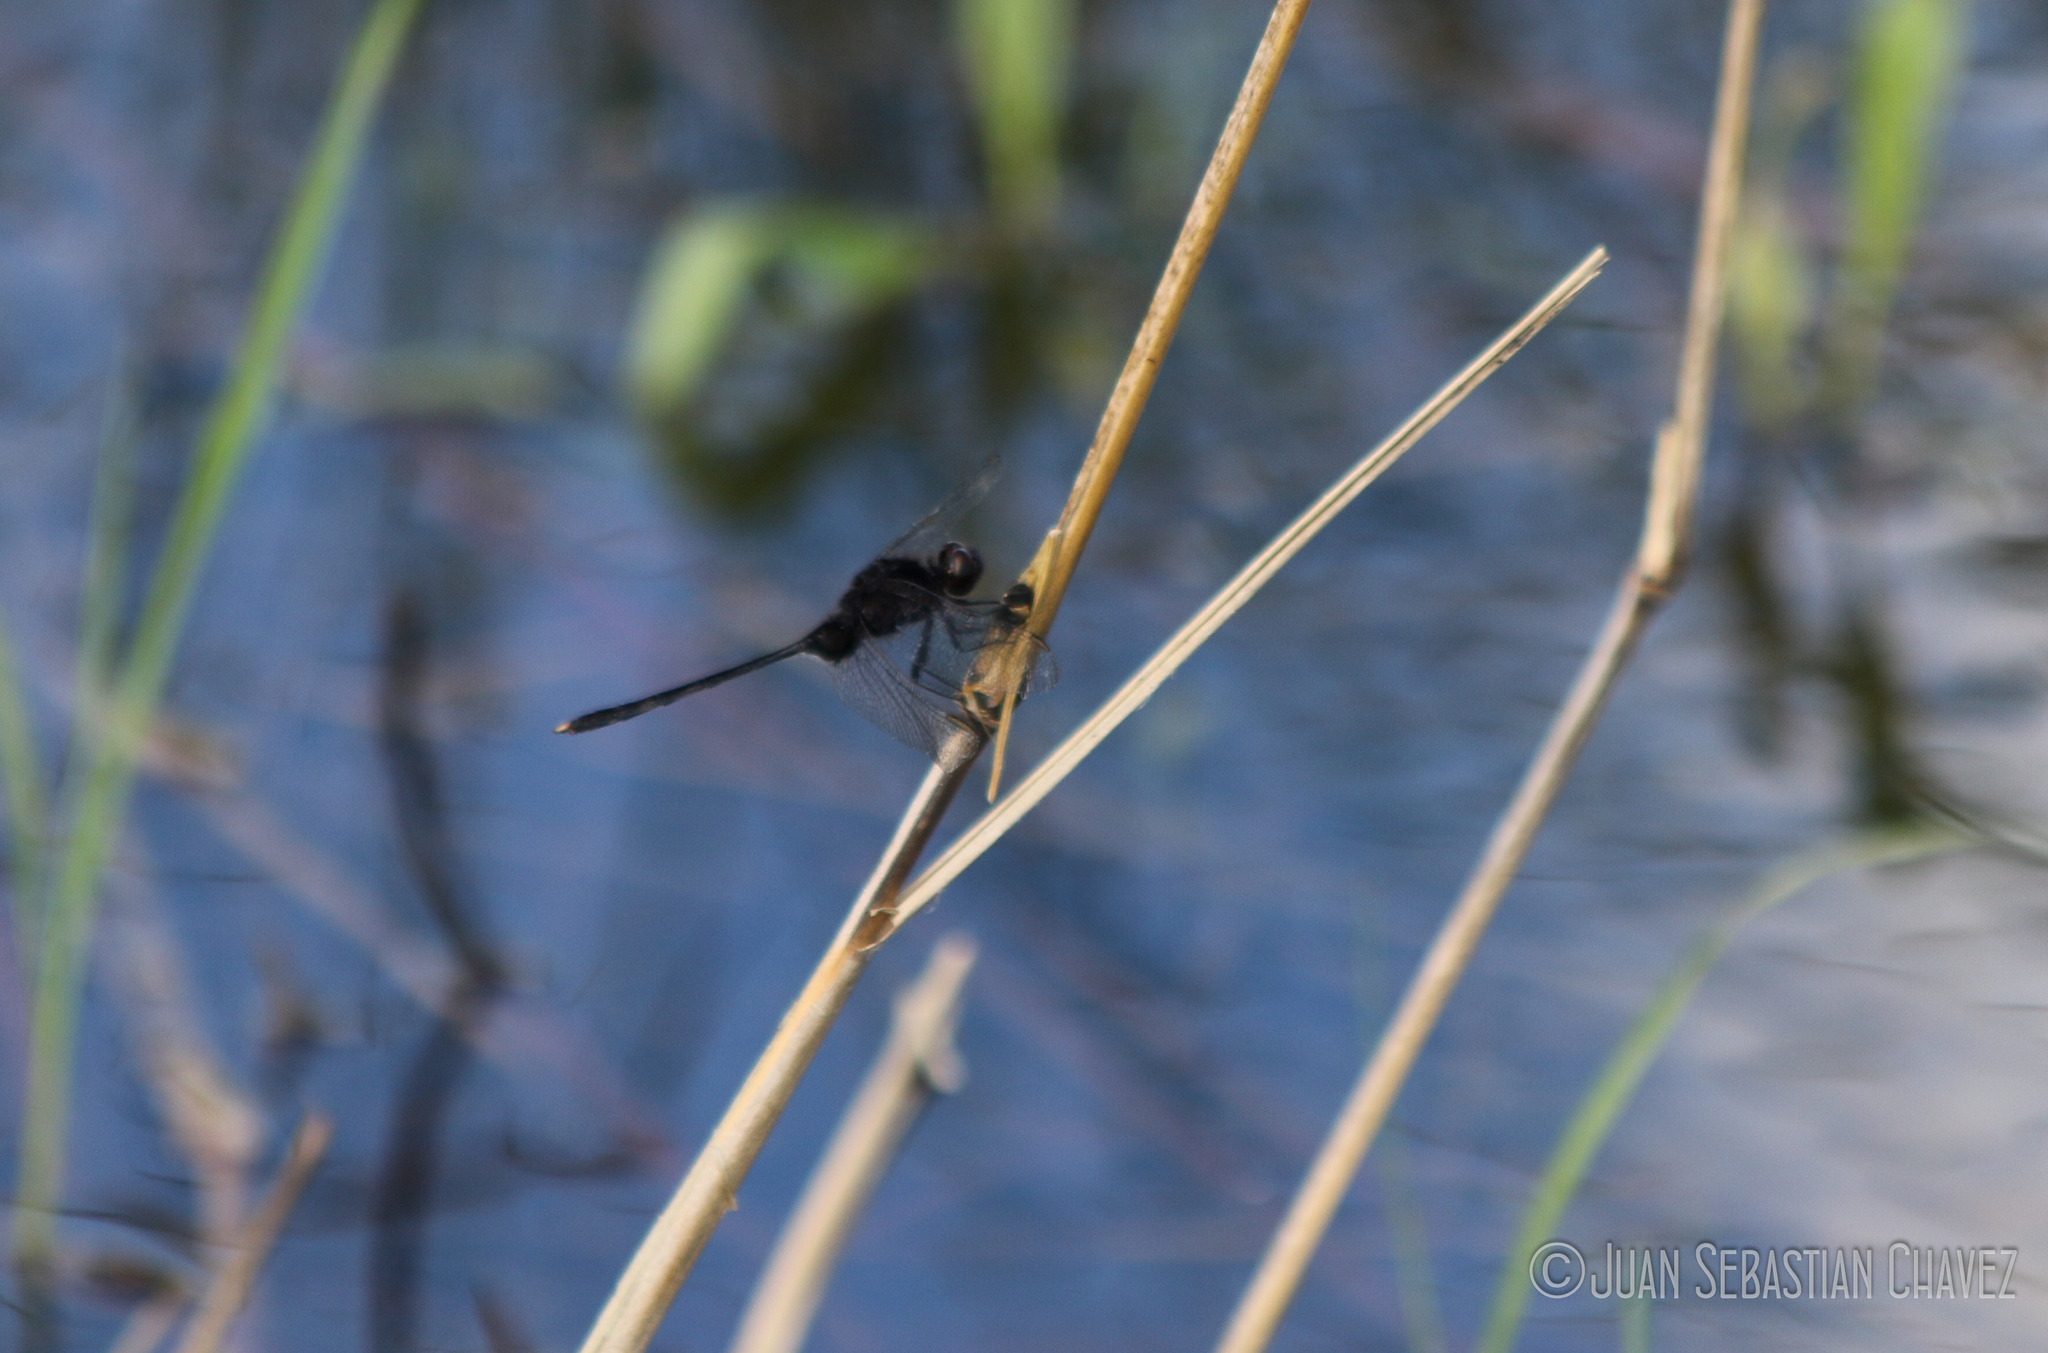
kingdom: Animalia
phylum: Arthropoda
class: Insecta
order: Odonata
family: Libellulidae
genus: Erythemis
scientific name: Erythemis plebeja
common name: Pin-tailed pondhawk
